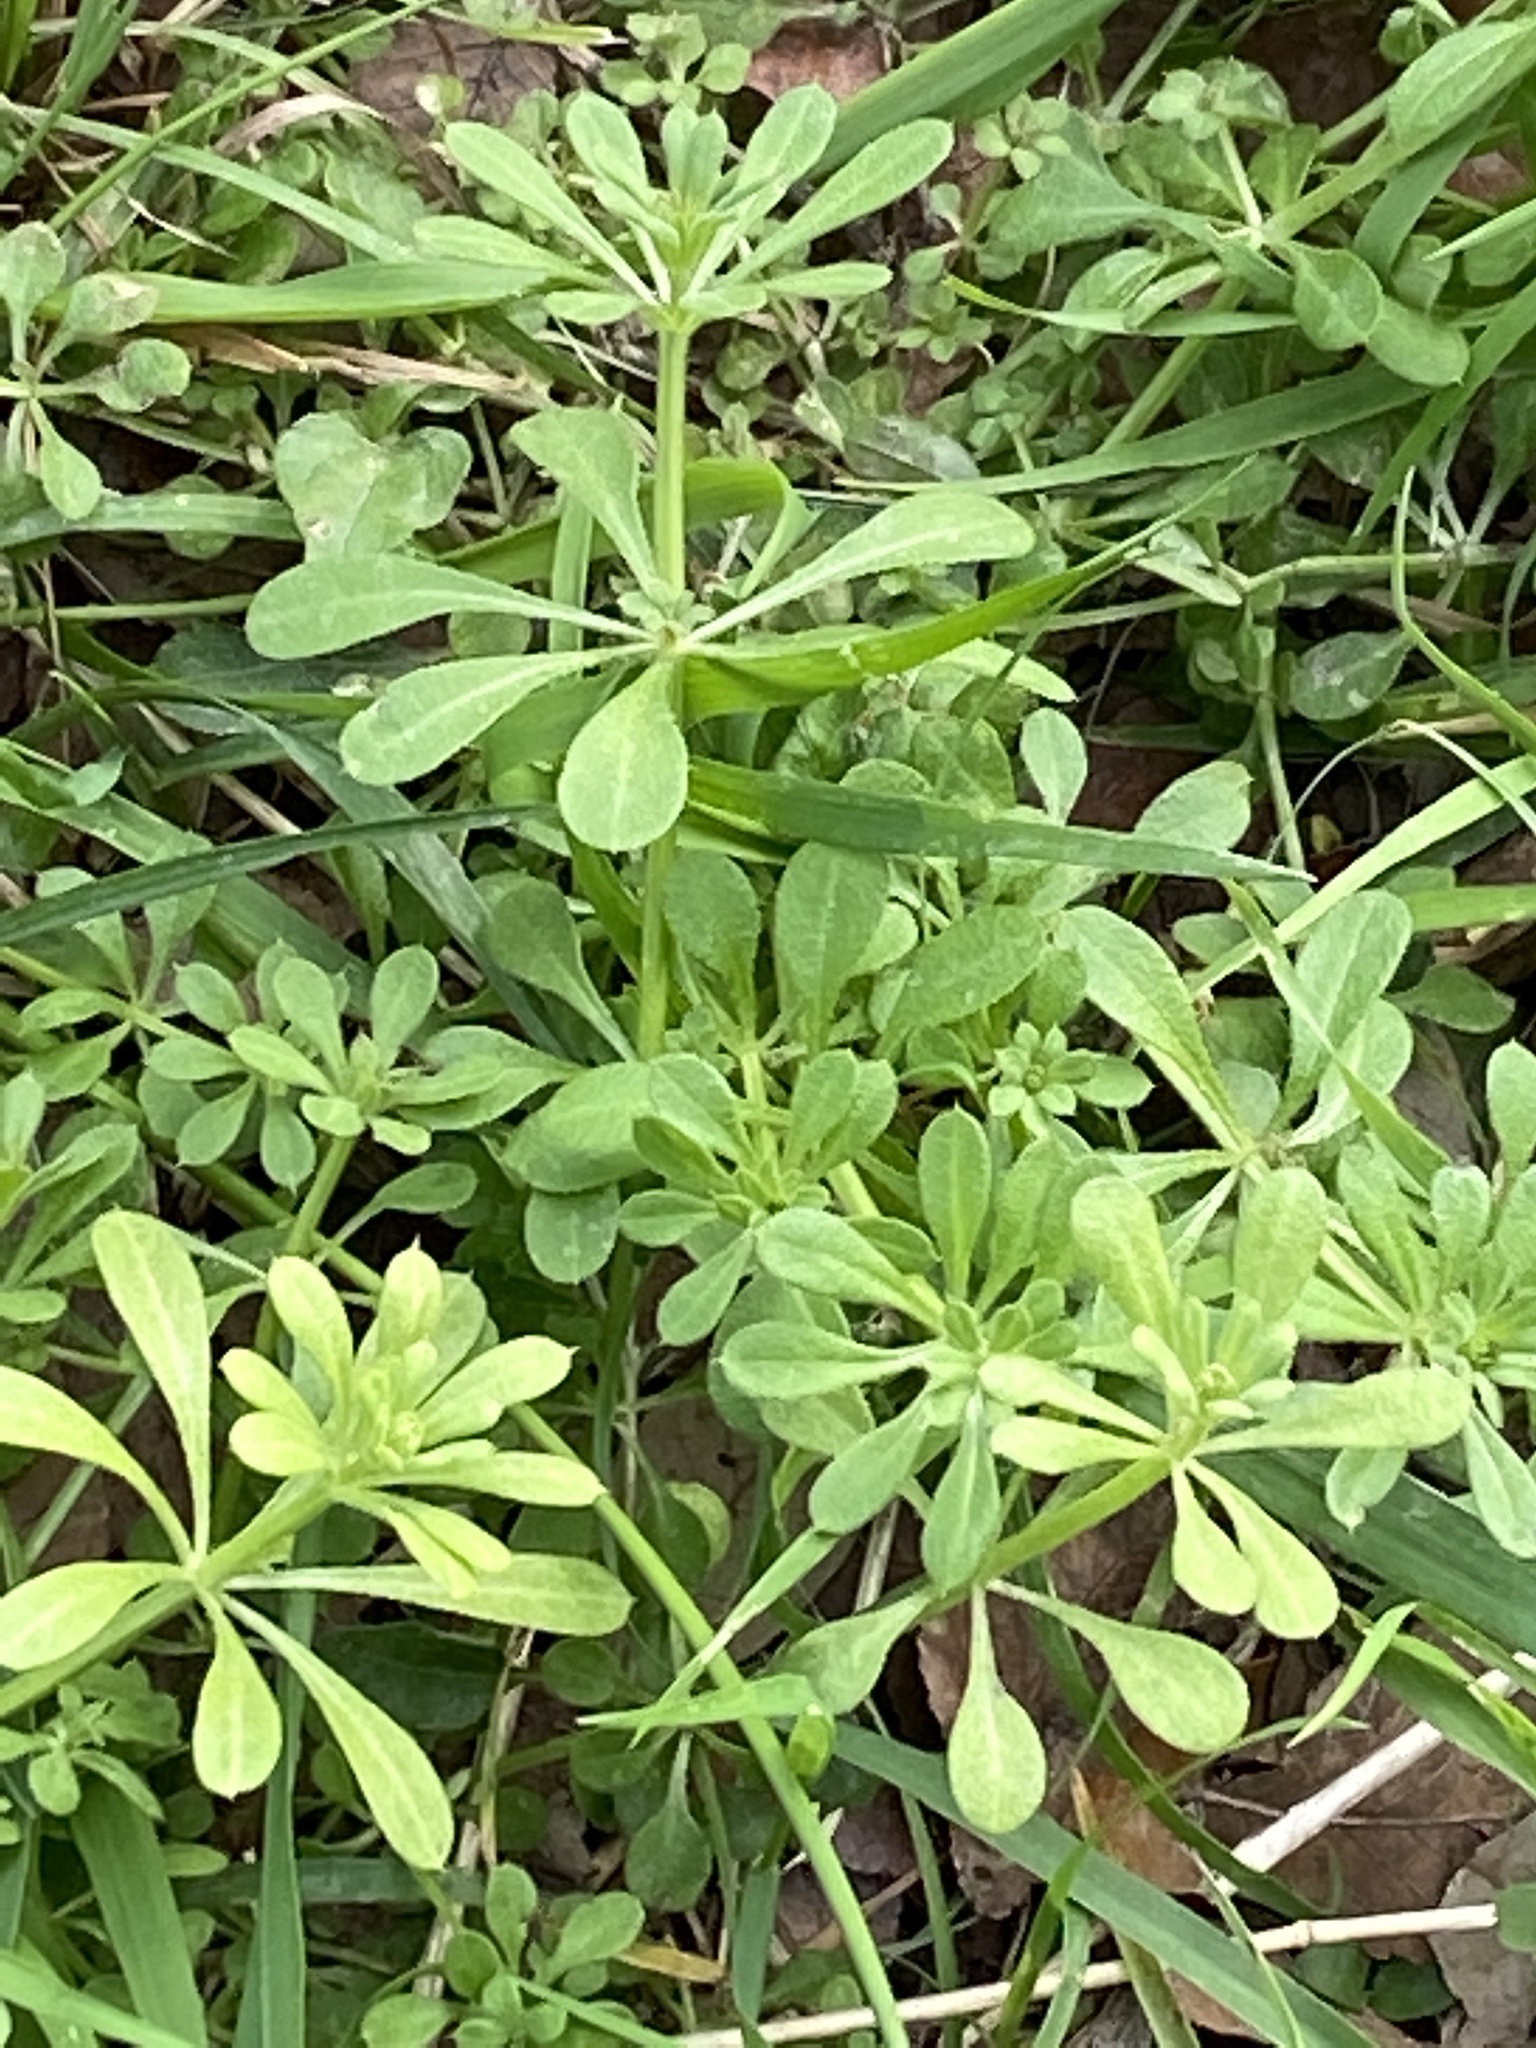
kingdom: Plantae
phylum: Tracheophyta
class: Magnoliopsida
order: Gentianales
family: Rubiaceae
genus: Galium
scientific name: Galium aparine
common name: Cleavers
